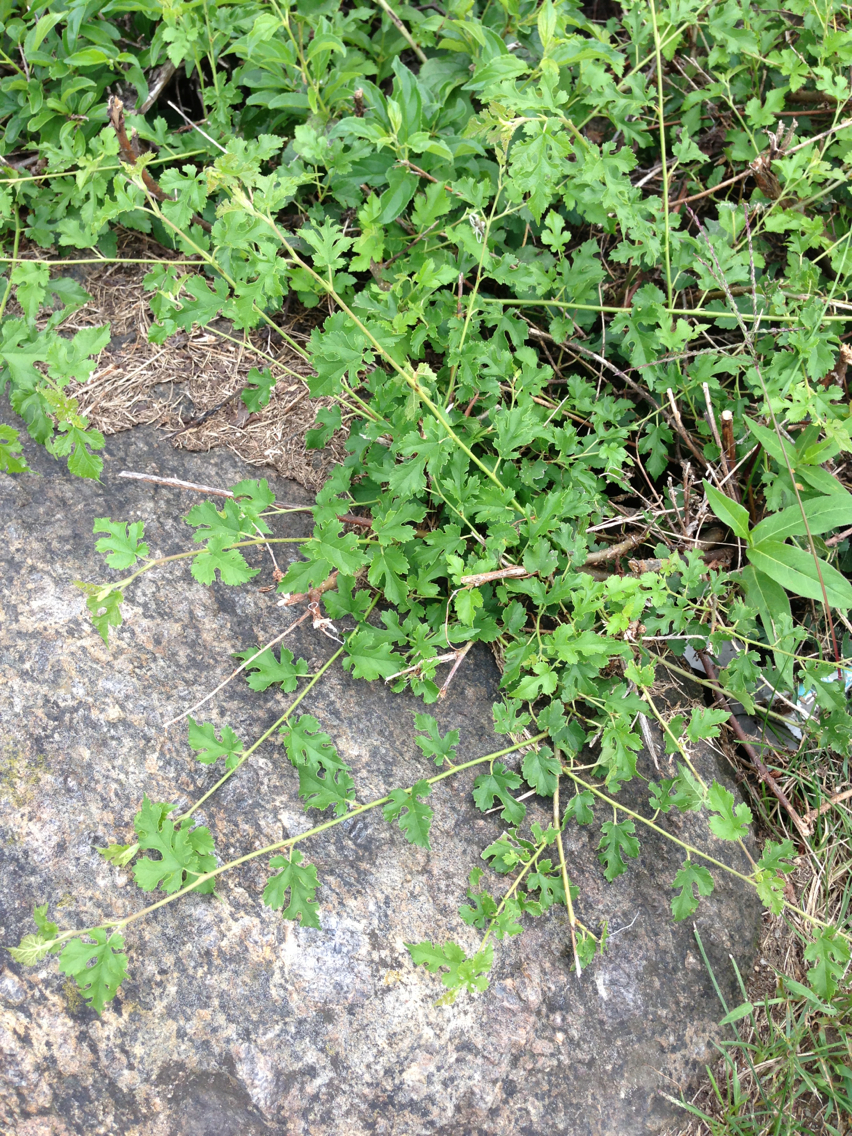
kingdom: Plantae
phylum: Tracheophyta
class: Magnoliopsida
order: Rosales
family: Moraceae
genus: Morus
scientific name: Morus alba
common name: White mulberry
